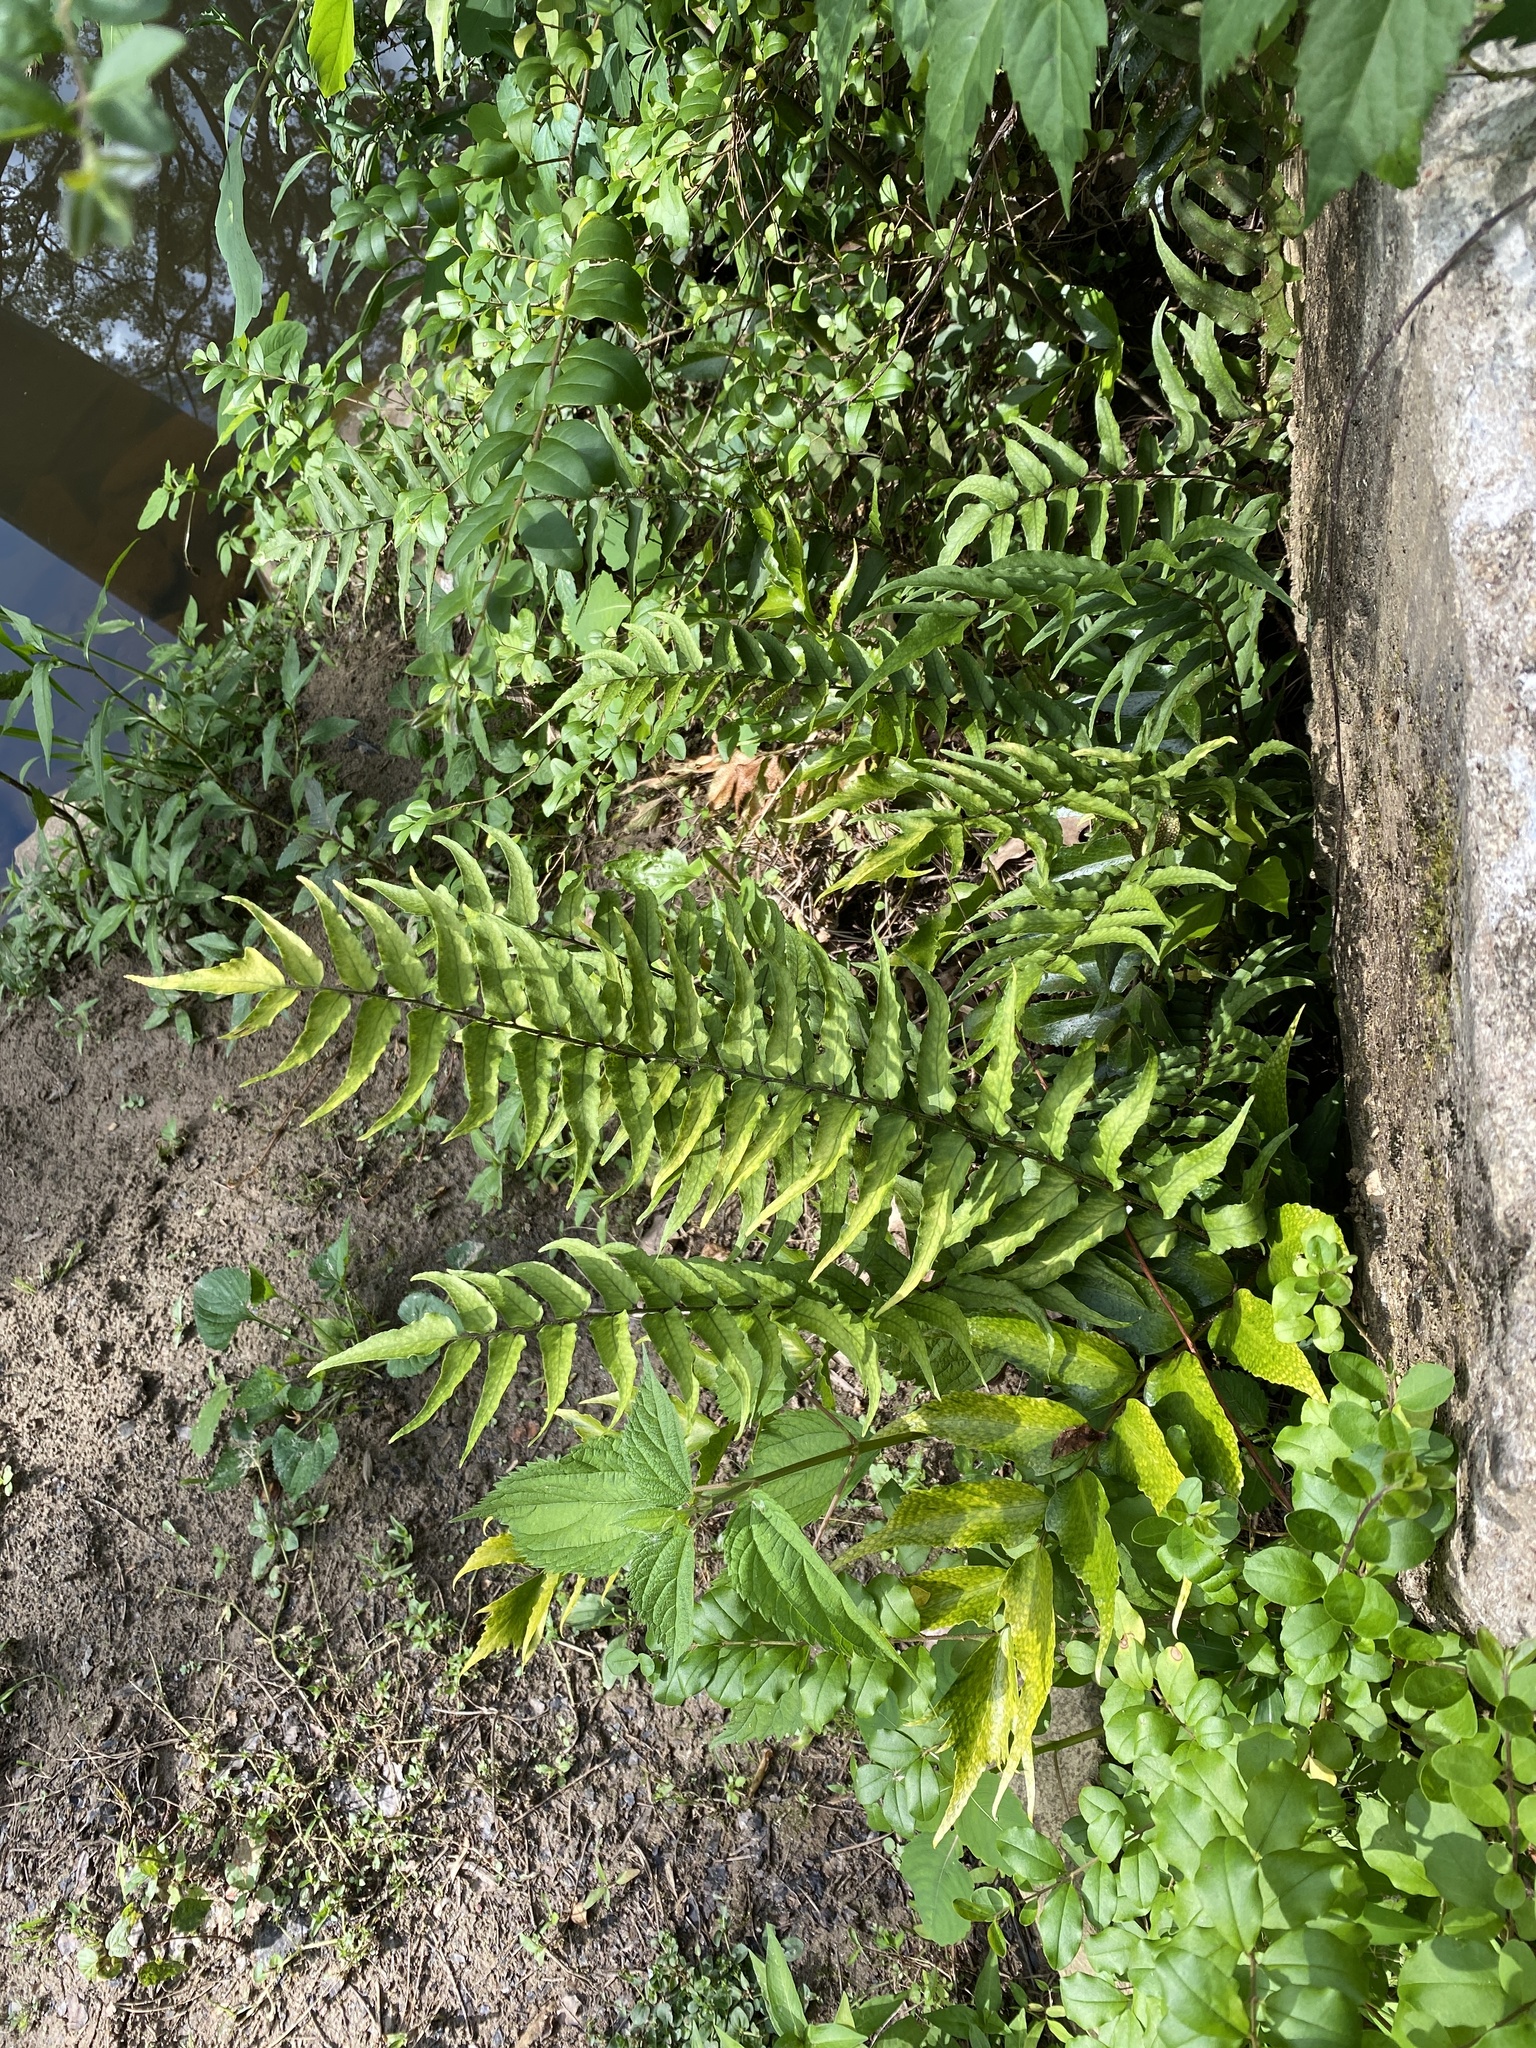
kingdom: Plantae
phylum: Tracheophyta
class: Polypodiopsida
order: Polypodiales
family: Dryopteridaceae
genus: Cyrtomium
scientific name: Cyrtomium fortunei
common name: Asian netvein hollyfern
